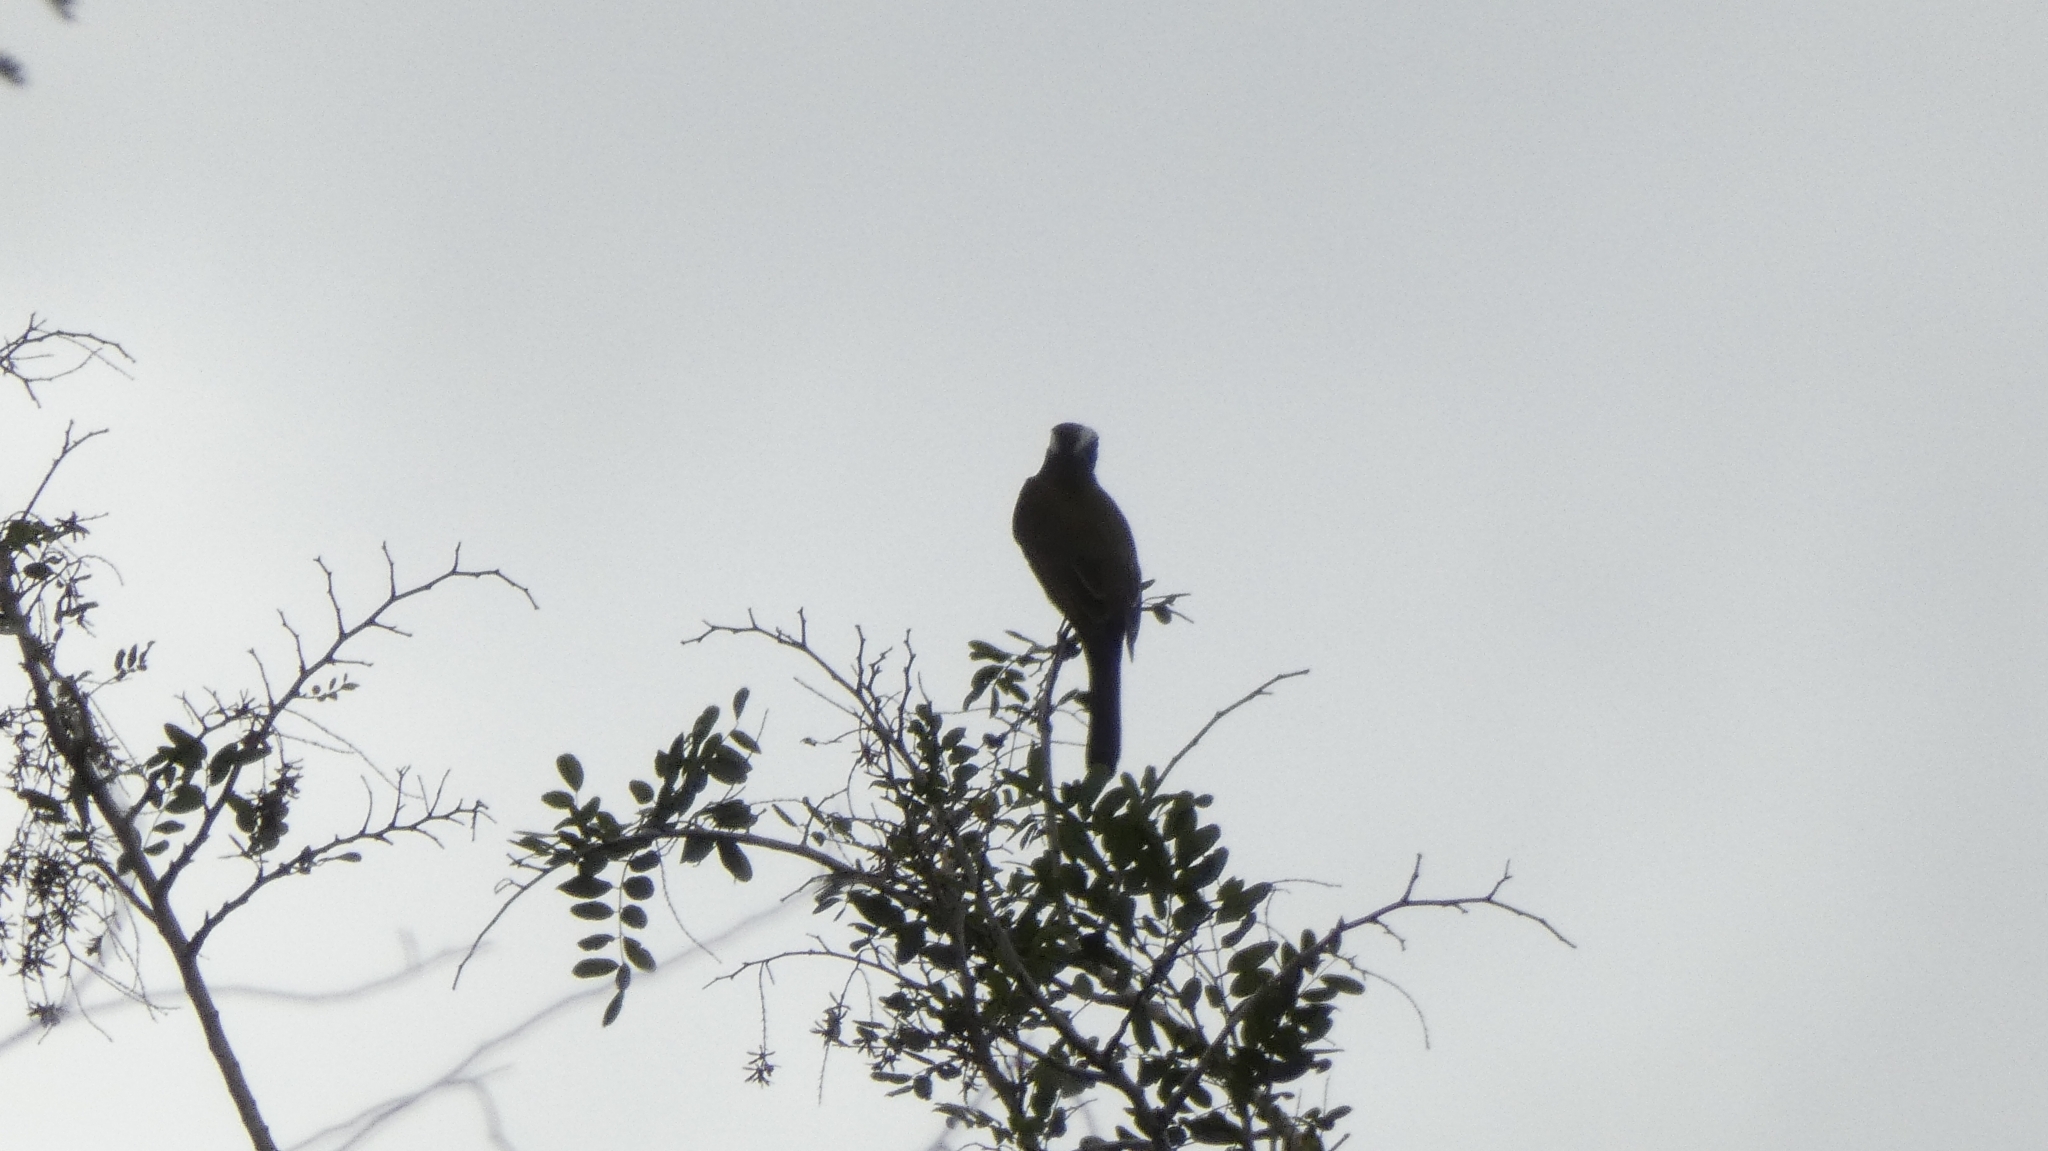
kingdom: Animalia
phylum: Chordata
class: Aves
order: Passeriformes
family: Tyrannidae
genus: Myiozetetes
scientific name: Myiozetetes similis
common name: Social flycatcher
